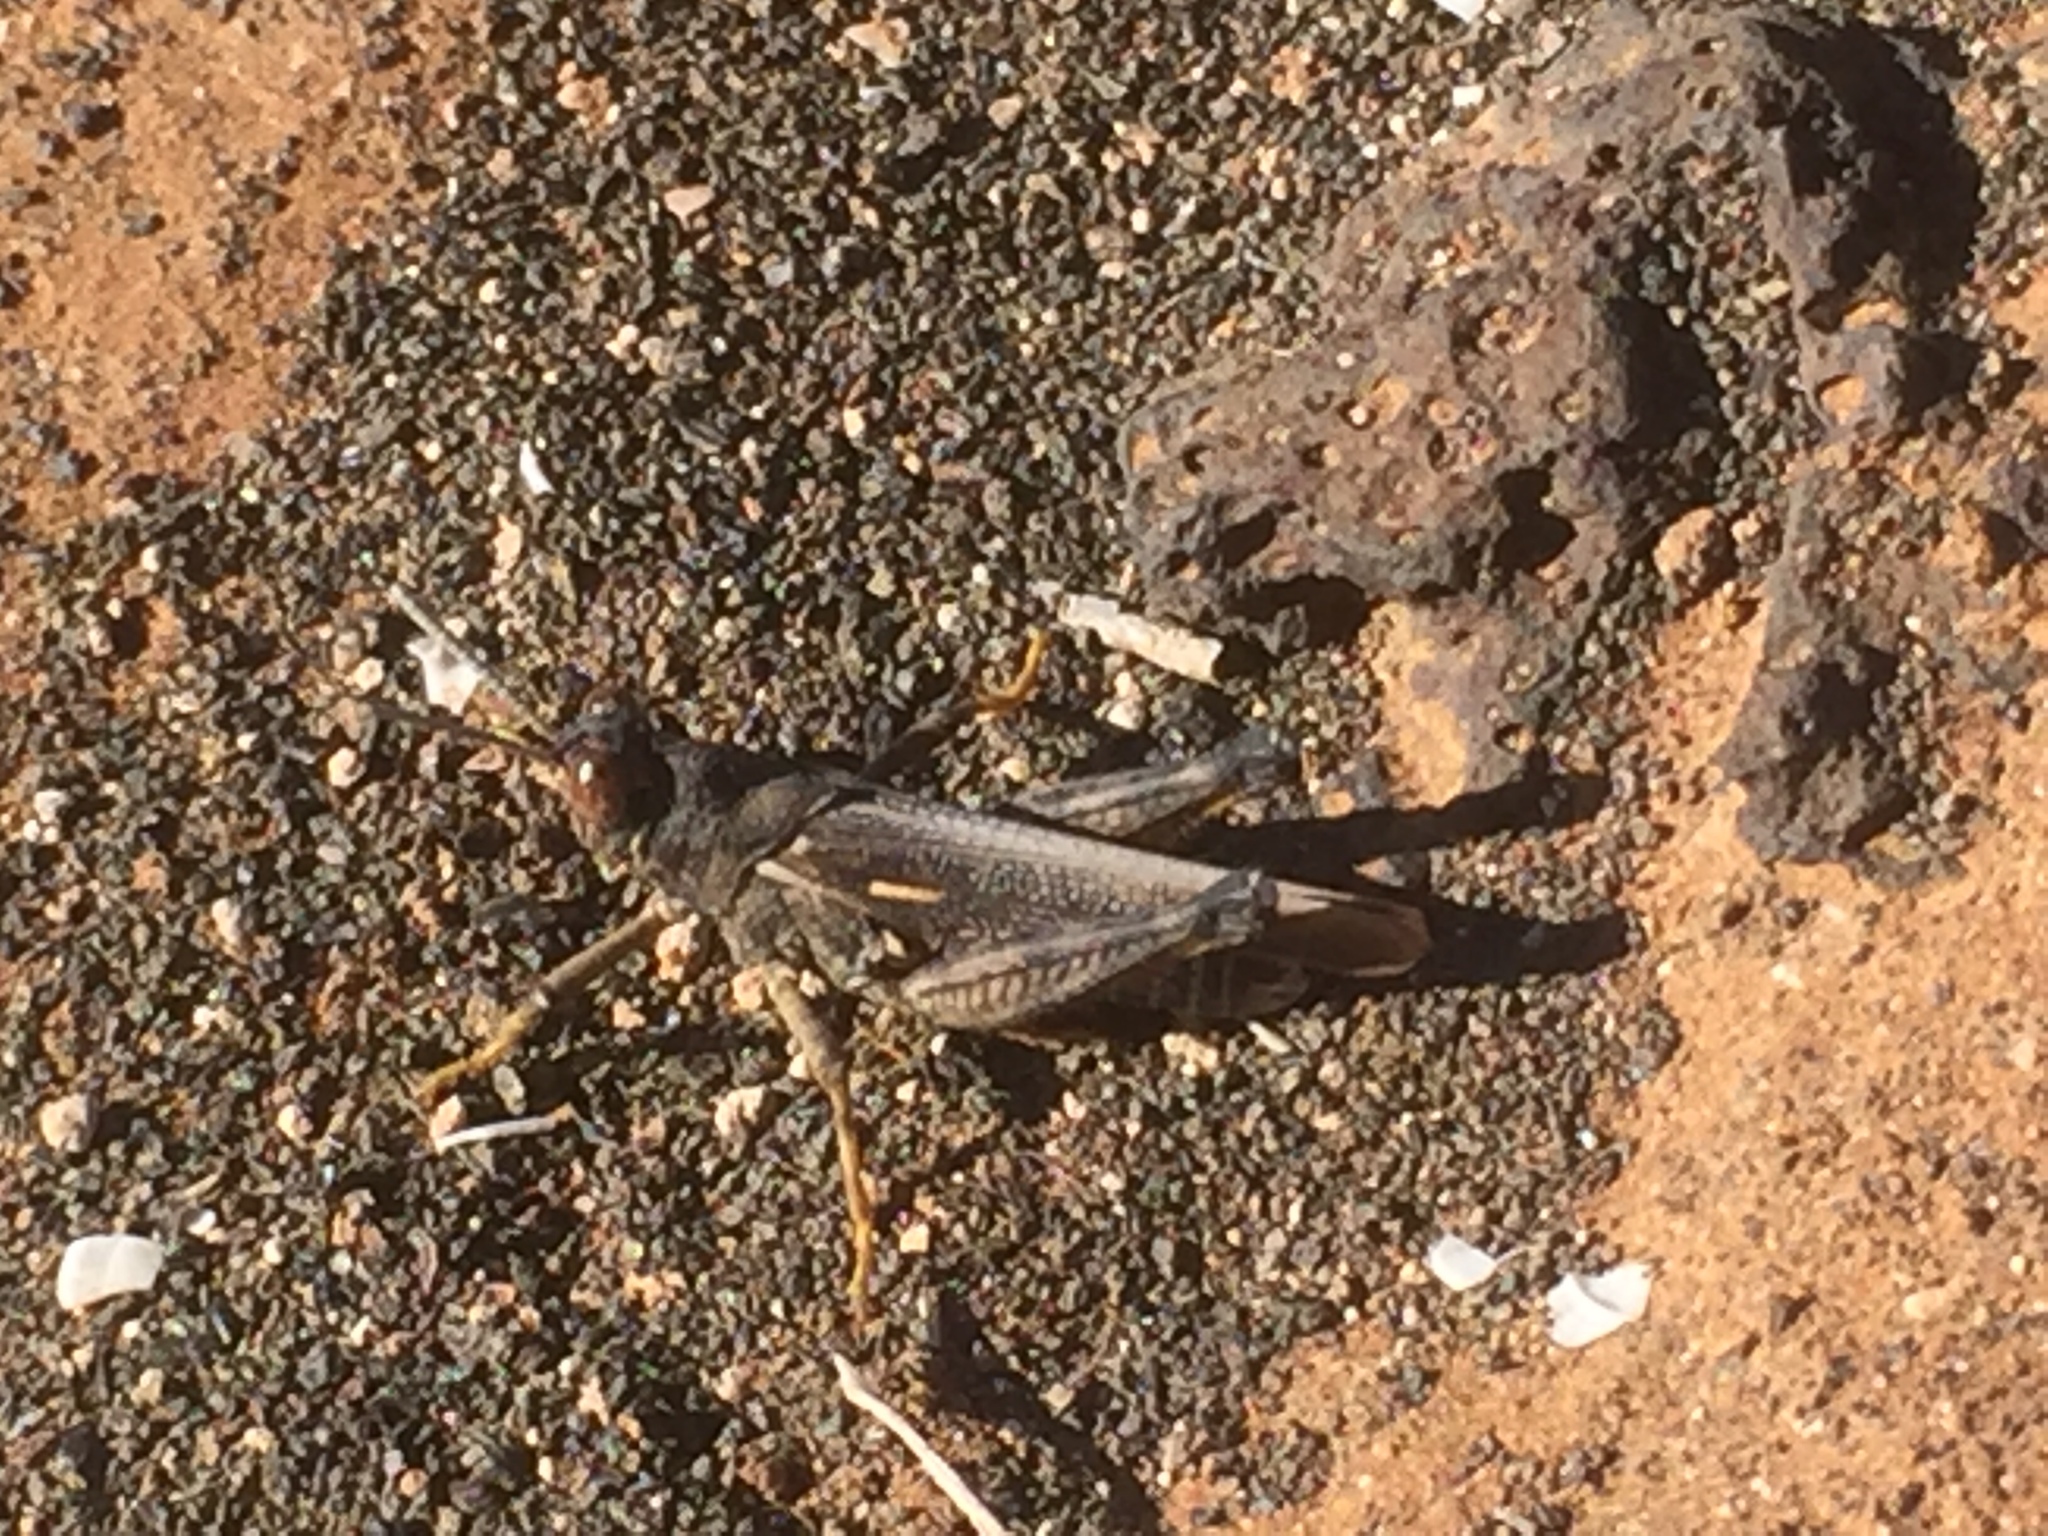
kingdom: Animalia
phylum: Arthropoda
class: Insecta
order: Orthoptera
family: Dericorythidae
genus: Dericorys
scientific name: Dericorys lobata
